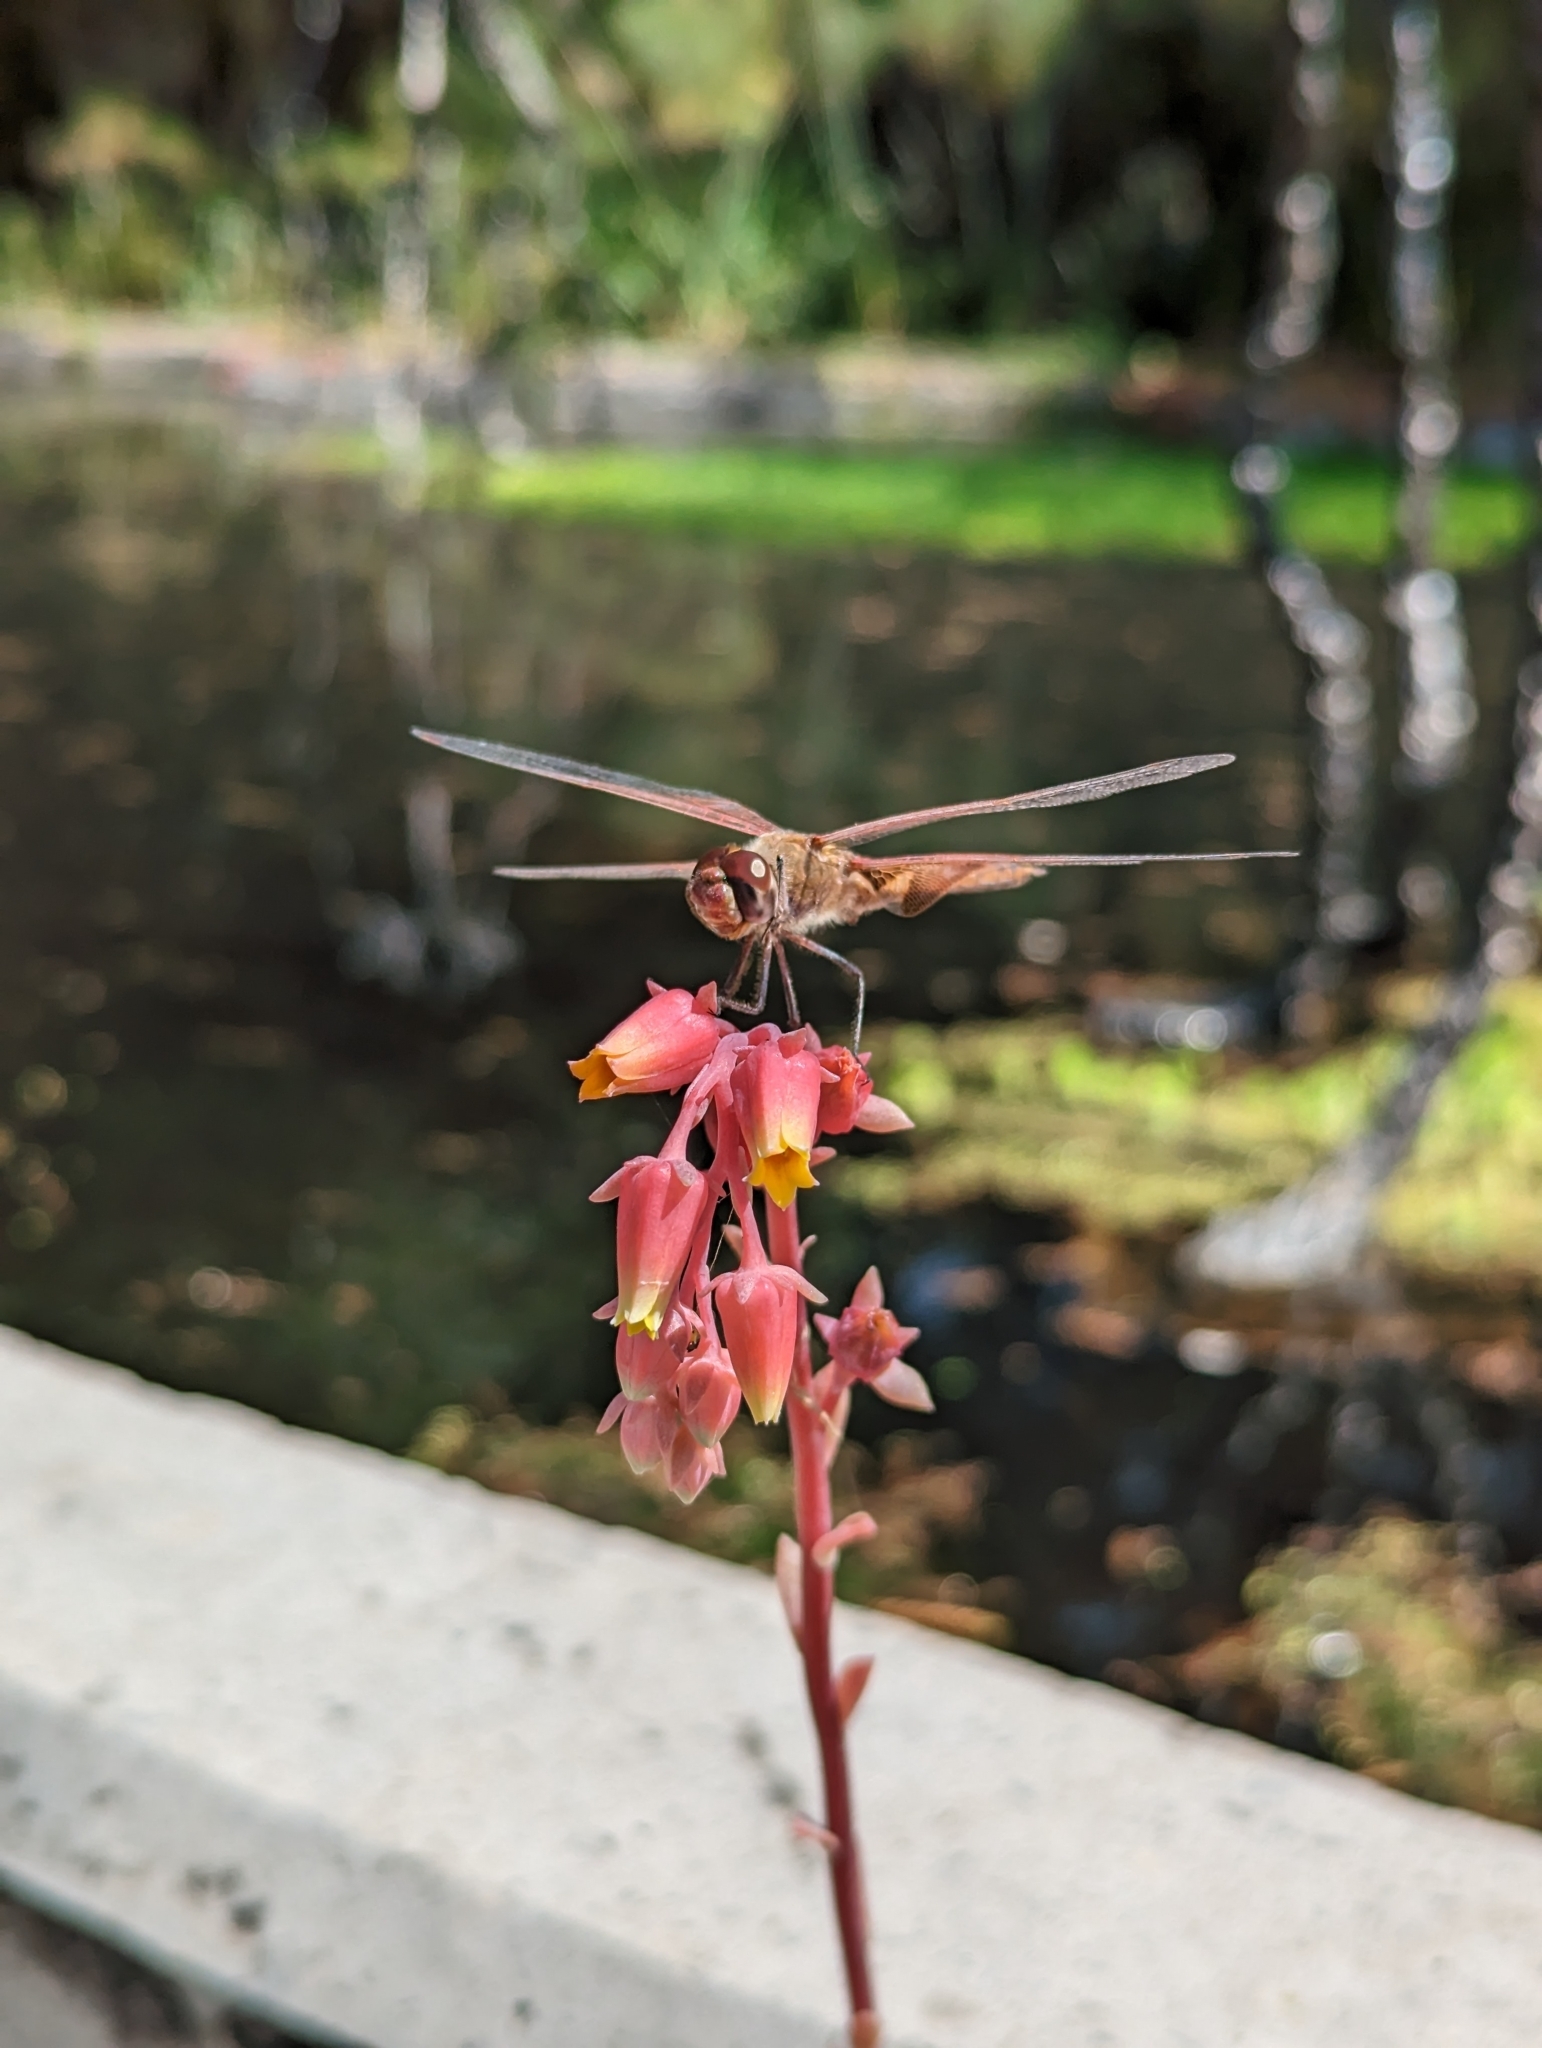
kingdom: Animalia
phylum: Arthropoda
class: Insecta
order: Odonata
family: Libellulidae
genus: Tramea
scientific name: Tramea onusta
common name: Red saddlebags
